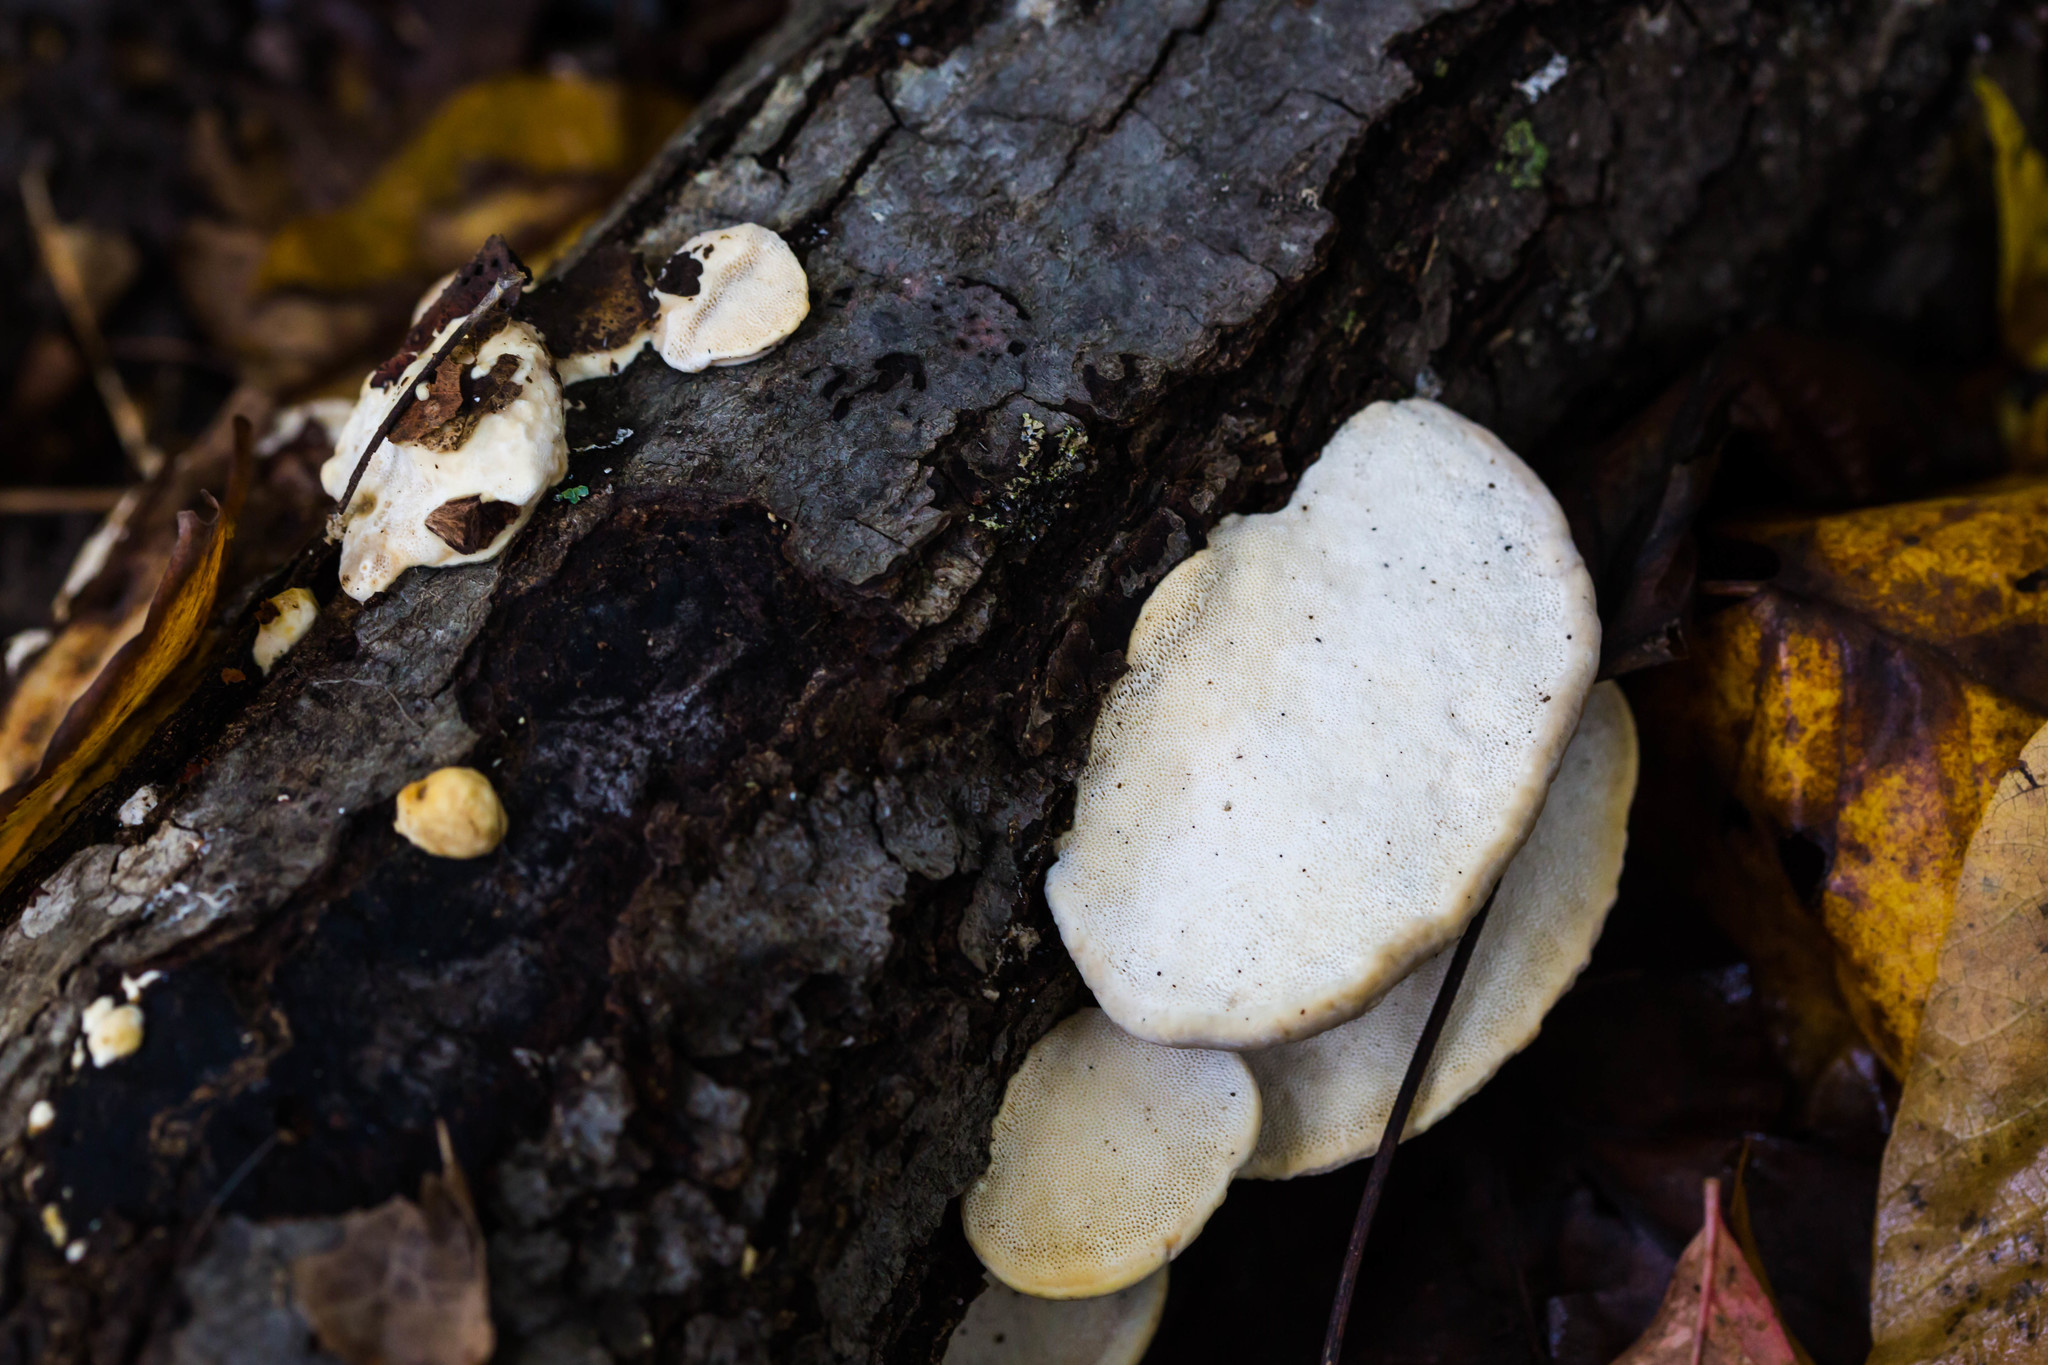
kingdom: Fungi
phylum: Basidiomycota
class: Agaricomycetes
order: Polyporales
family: Polyporaceae
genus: Trametes
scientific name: Trametes lactinea
